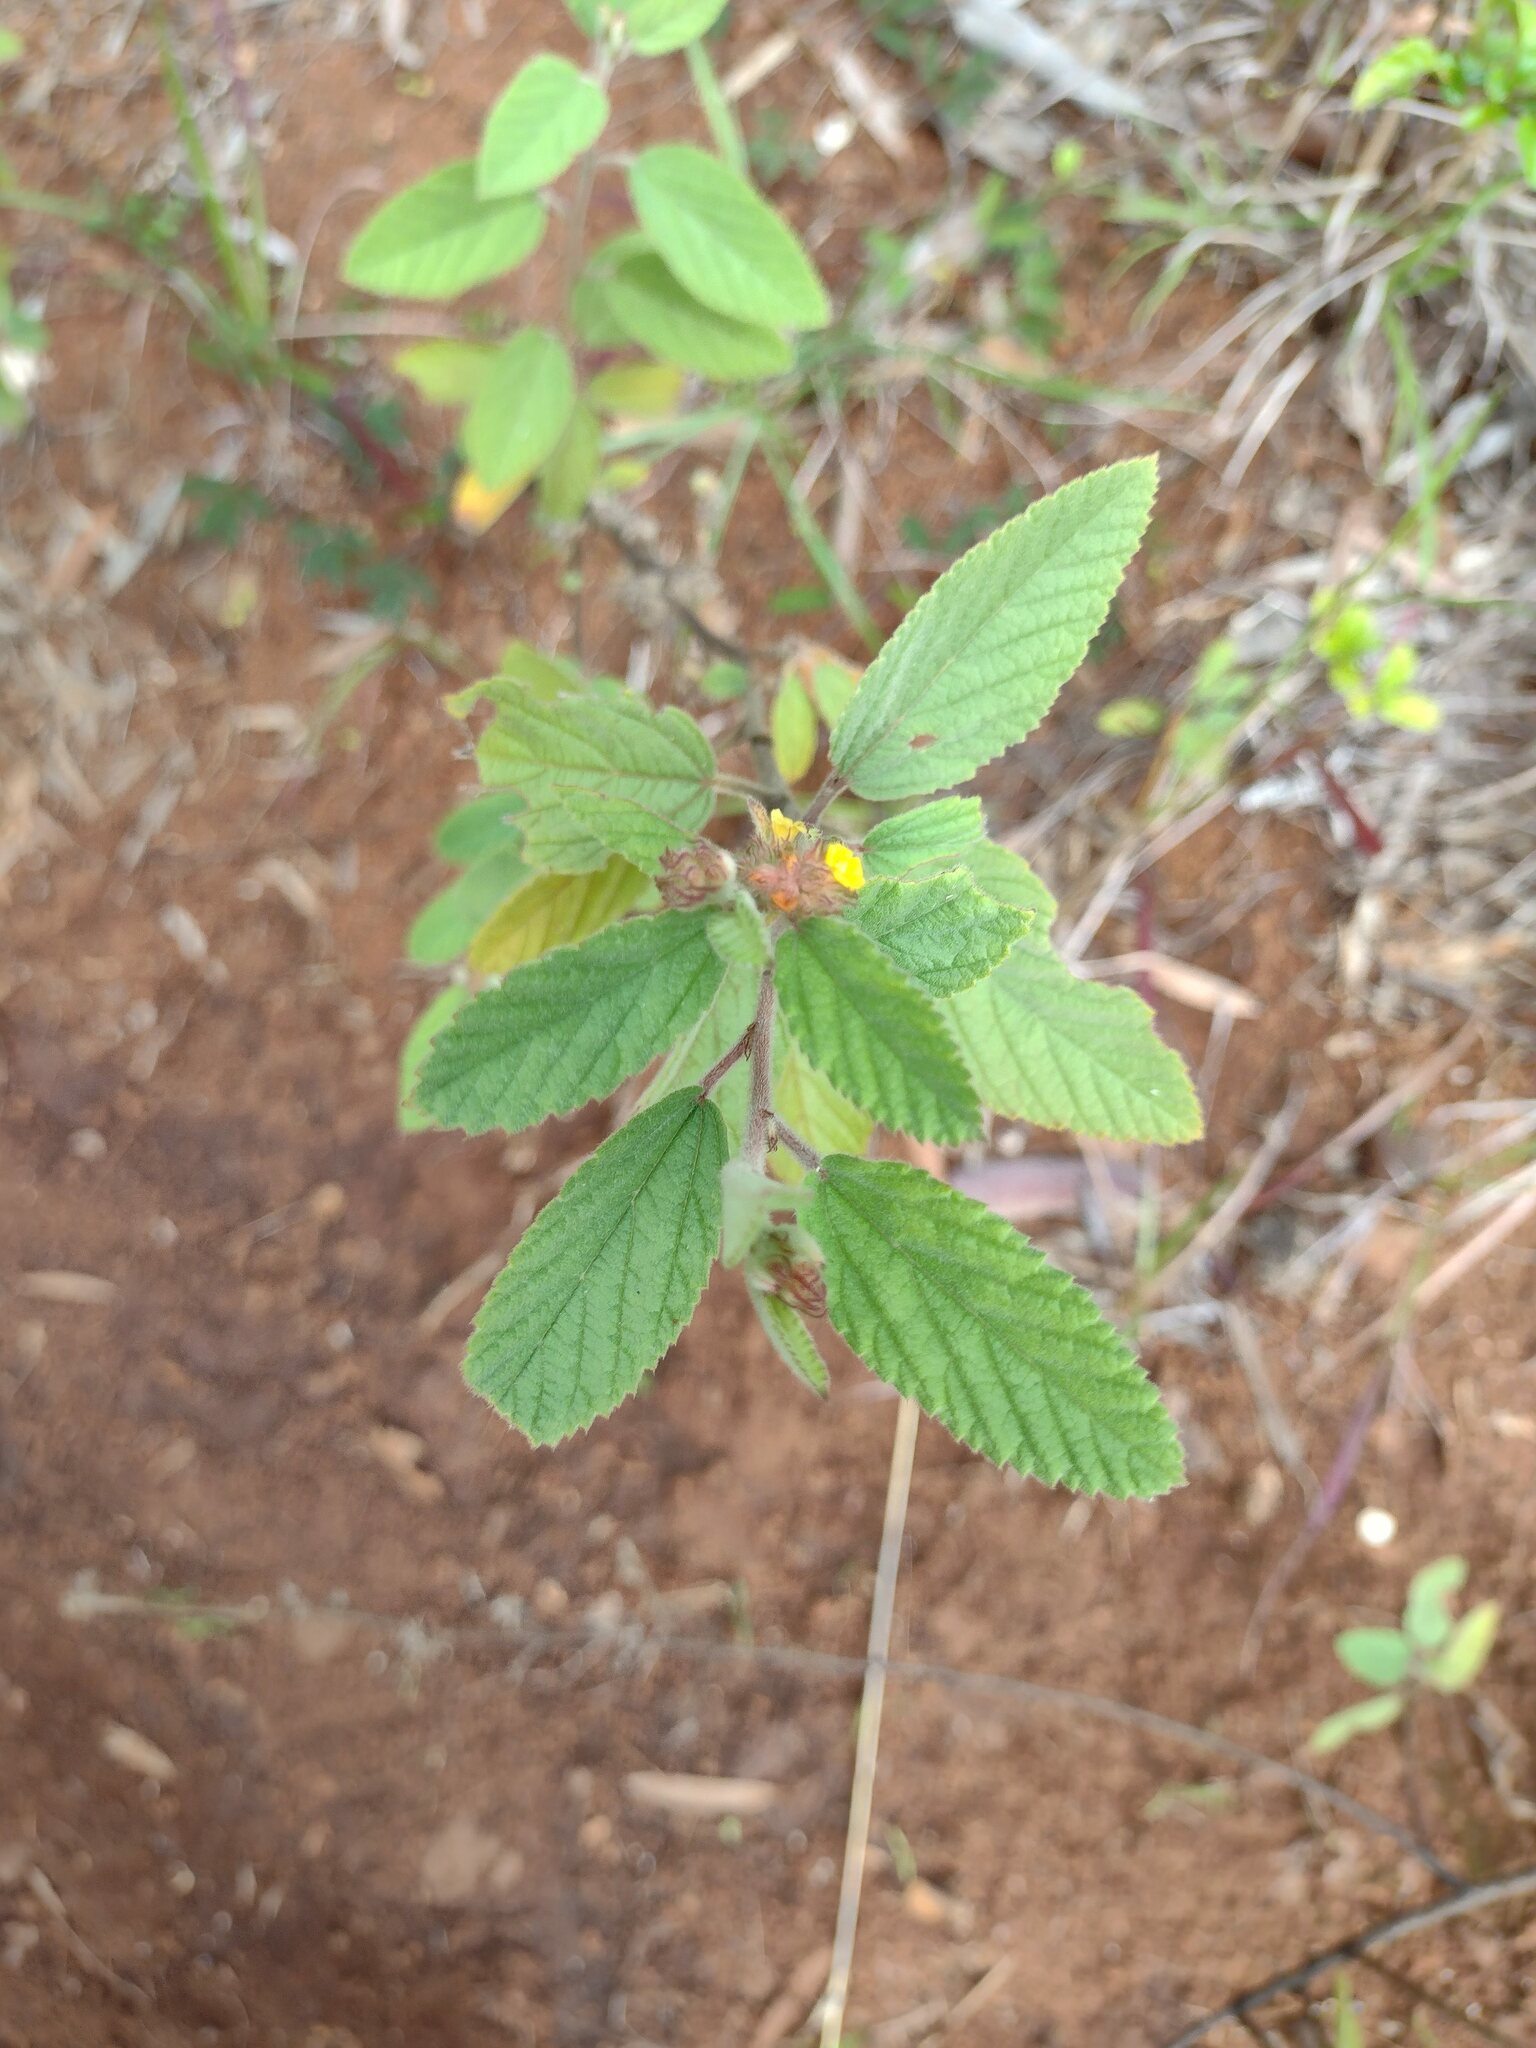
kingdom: Plantae
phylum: Tracheophyta
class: Magnoliopsida
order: Malvales
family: Malvaceae
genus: Waltheria
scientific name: Waltheria indica
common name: Leather-coat
